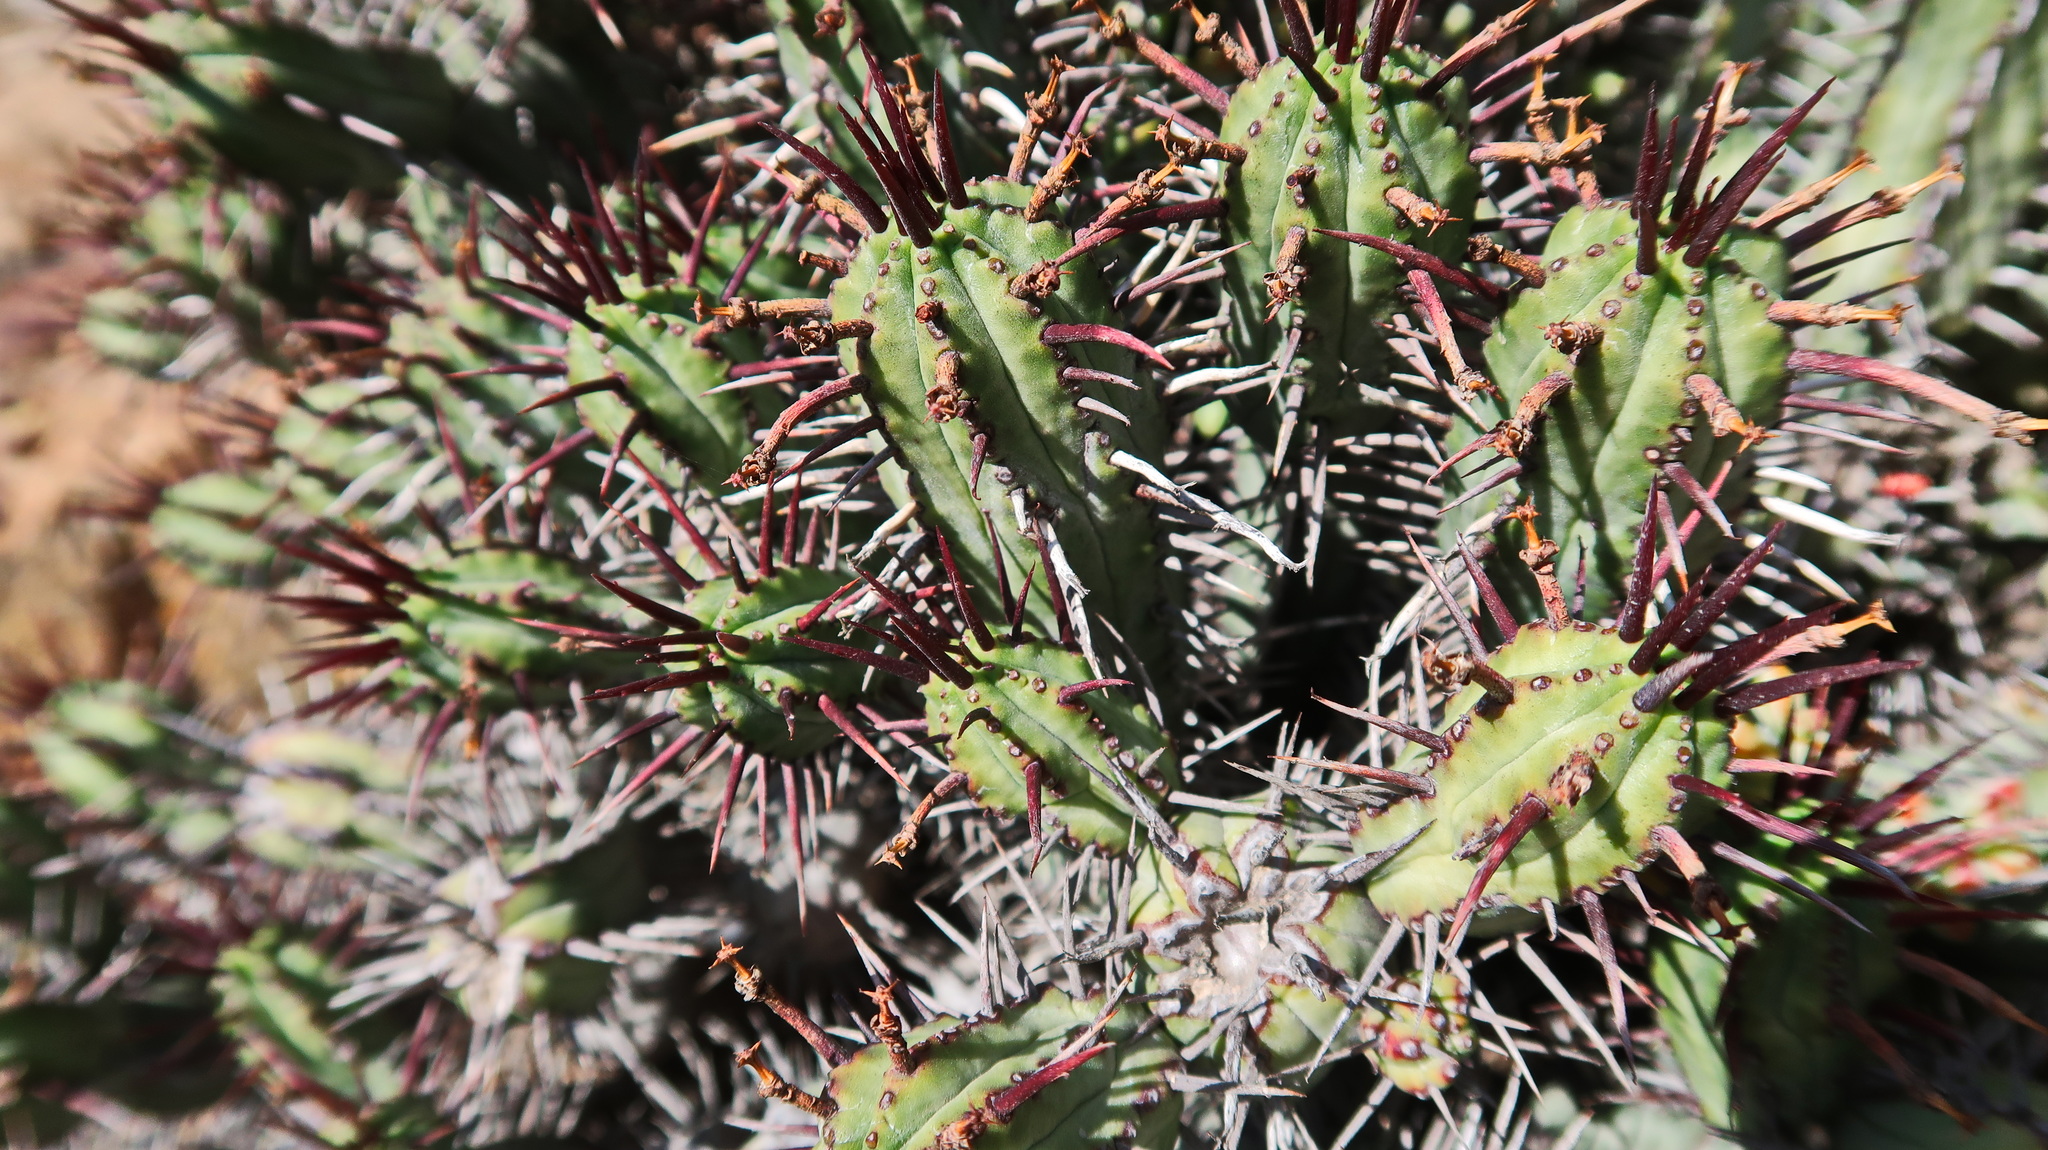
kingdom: Plantae
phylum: Tracheophyta
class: Magnoliopsida
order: Malpighiales
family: Euphorbiaceae
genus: Euphorbia
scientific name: Euphorbia heptagona
